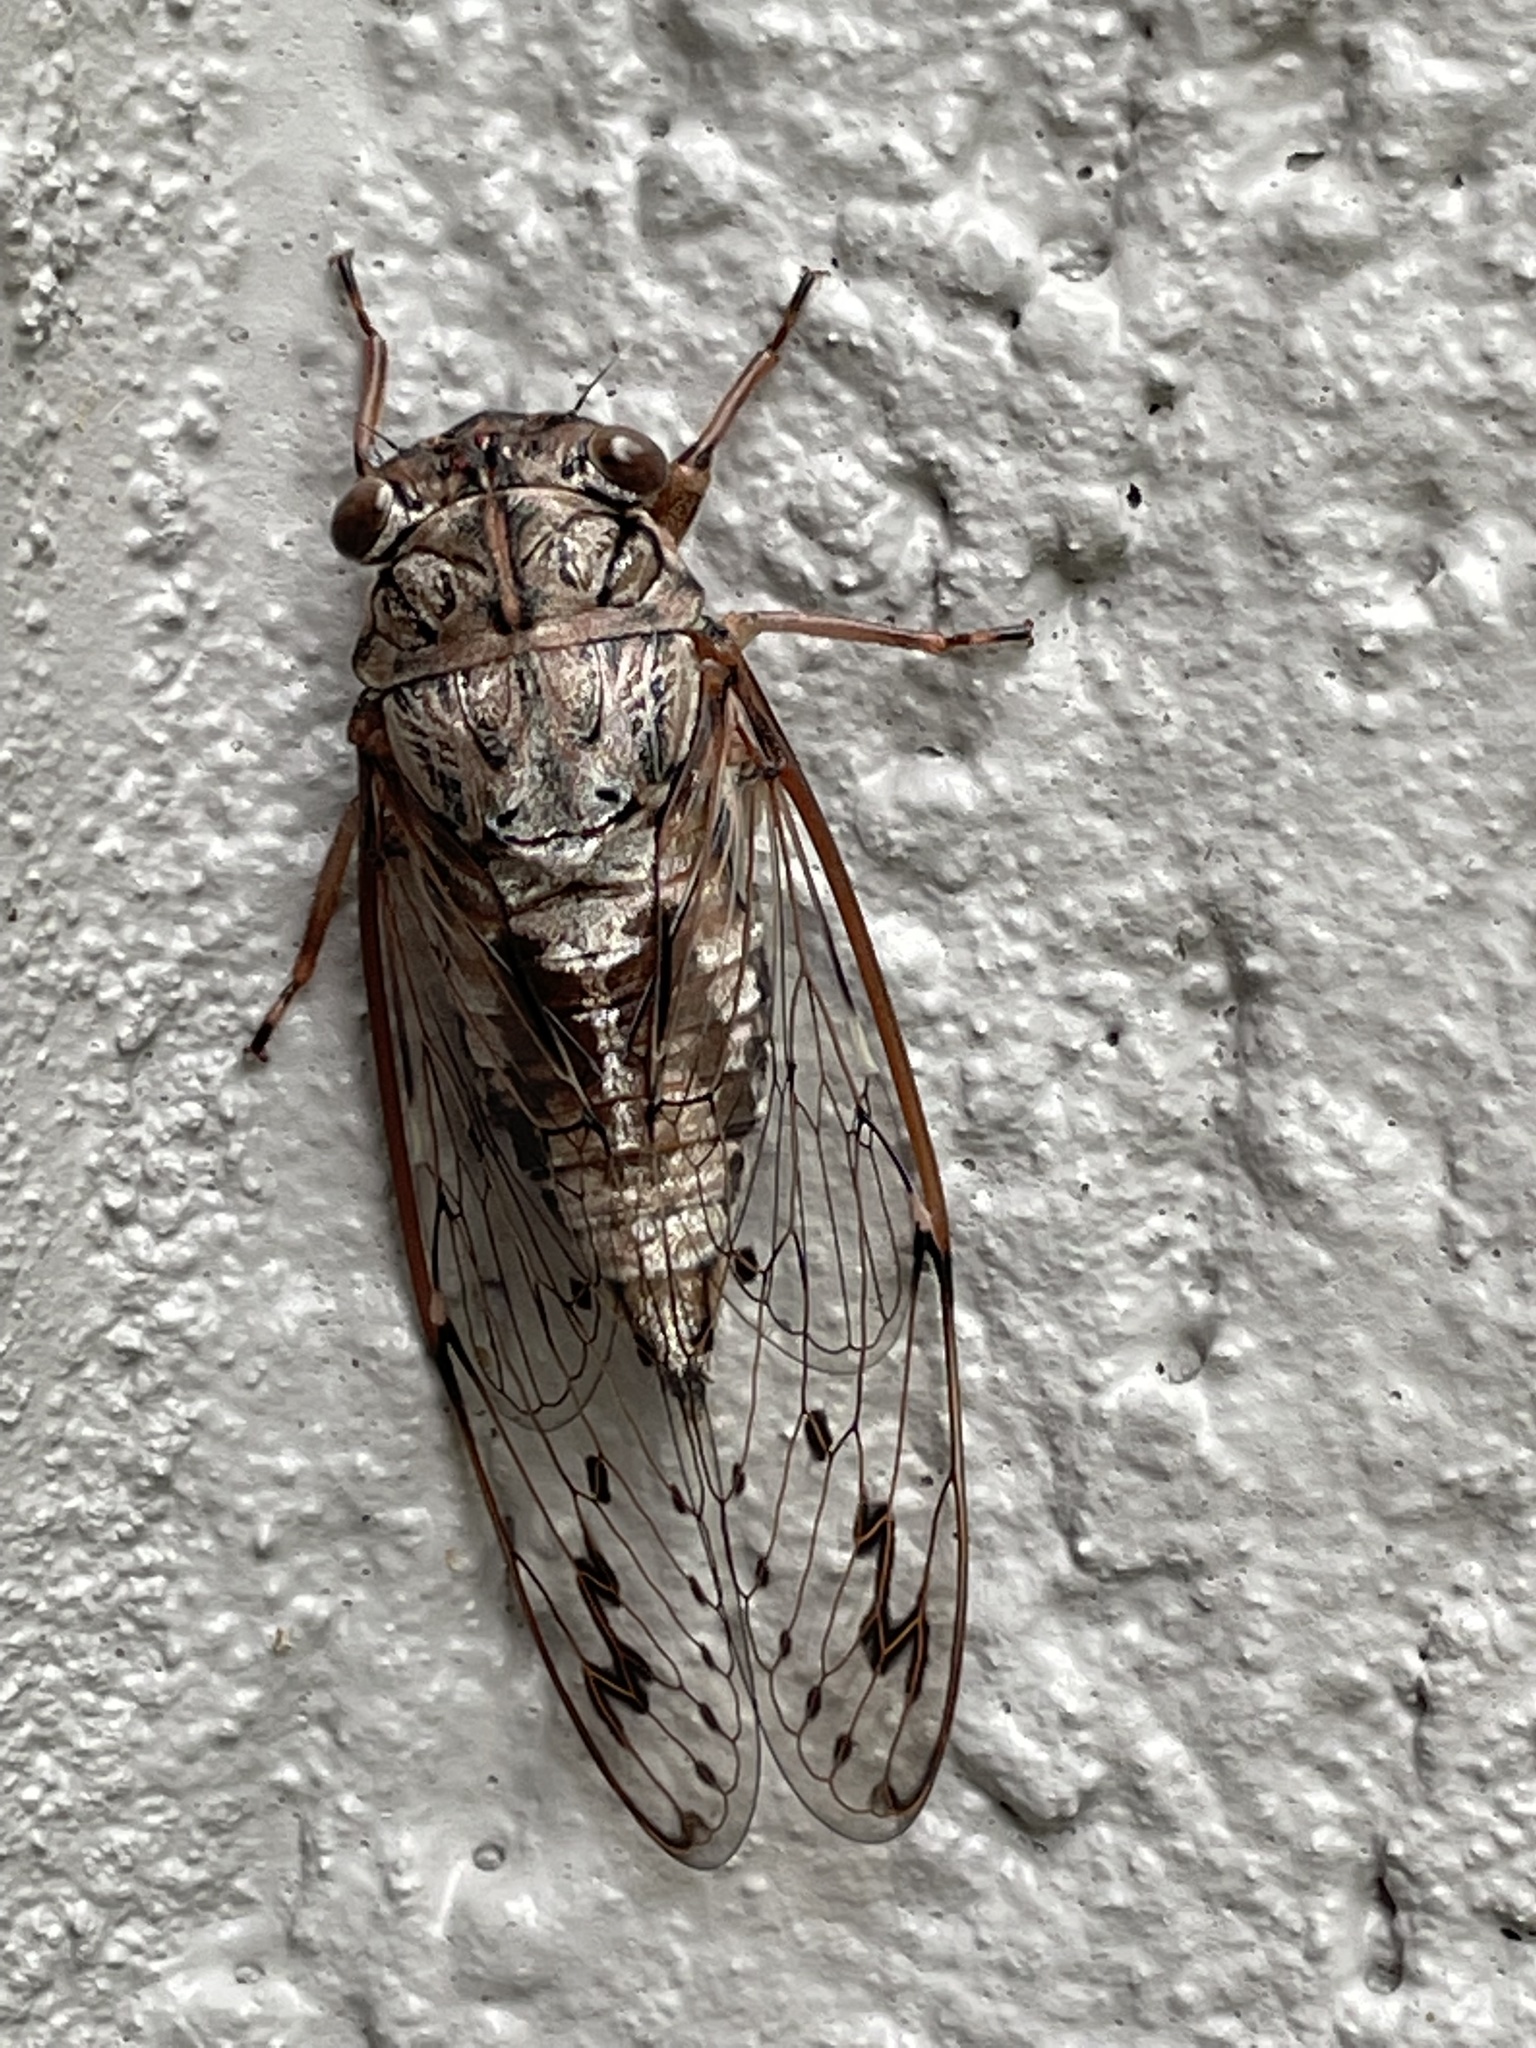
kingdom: Animalia
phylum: Arthropoda
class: Insecta
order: Hemiptera
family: Cicadidae
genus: Neocicada
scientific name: Neocicada hieroglyphica
